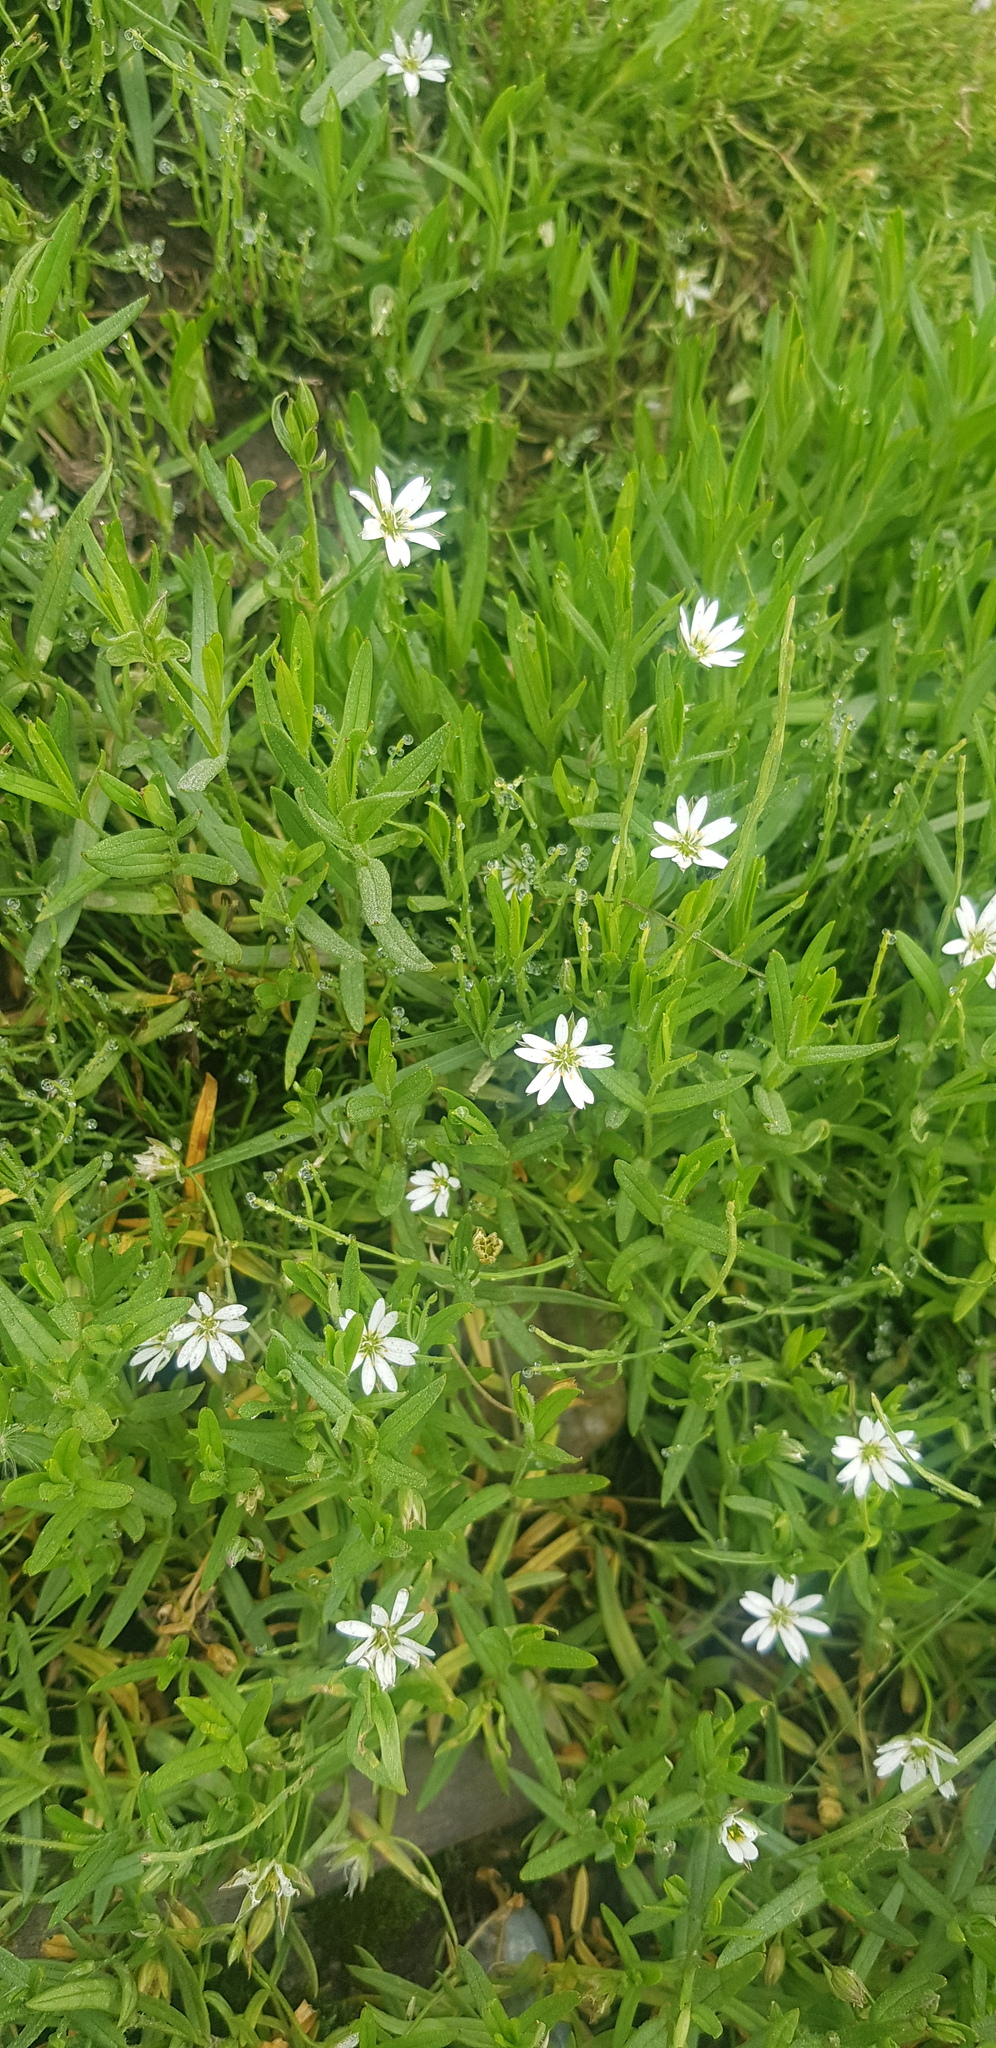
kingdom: Plantae
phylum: Tracheophyta
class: Magnoliopsida
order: Caryophyllales
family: Caryophyllaceae
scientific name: Caryophyllaceae
